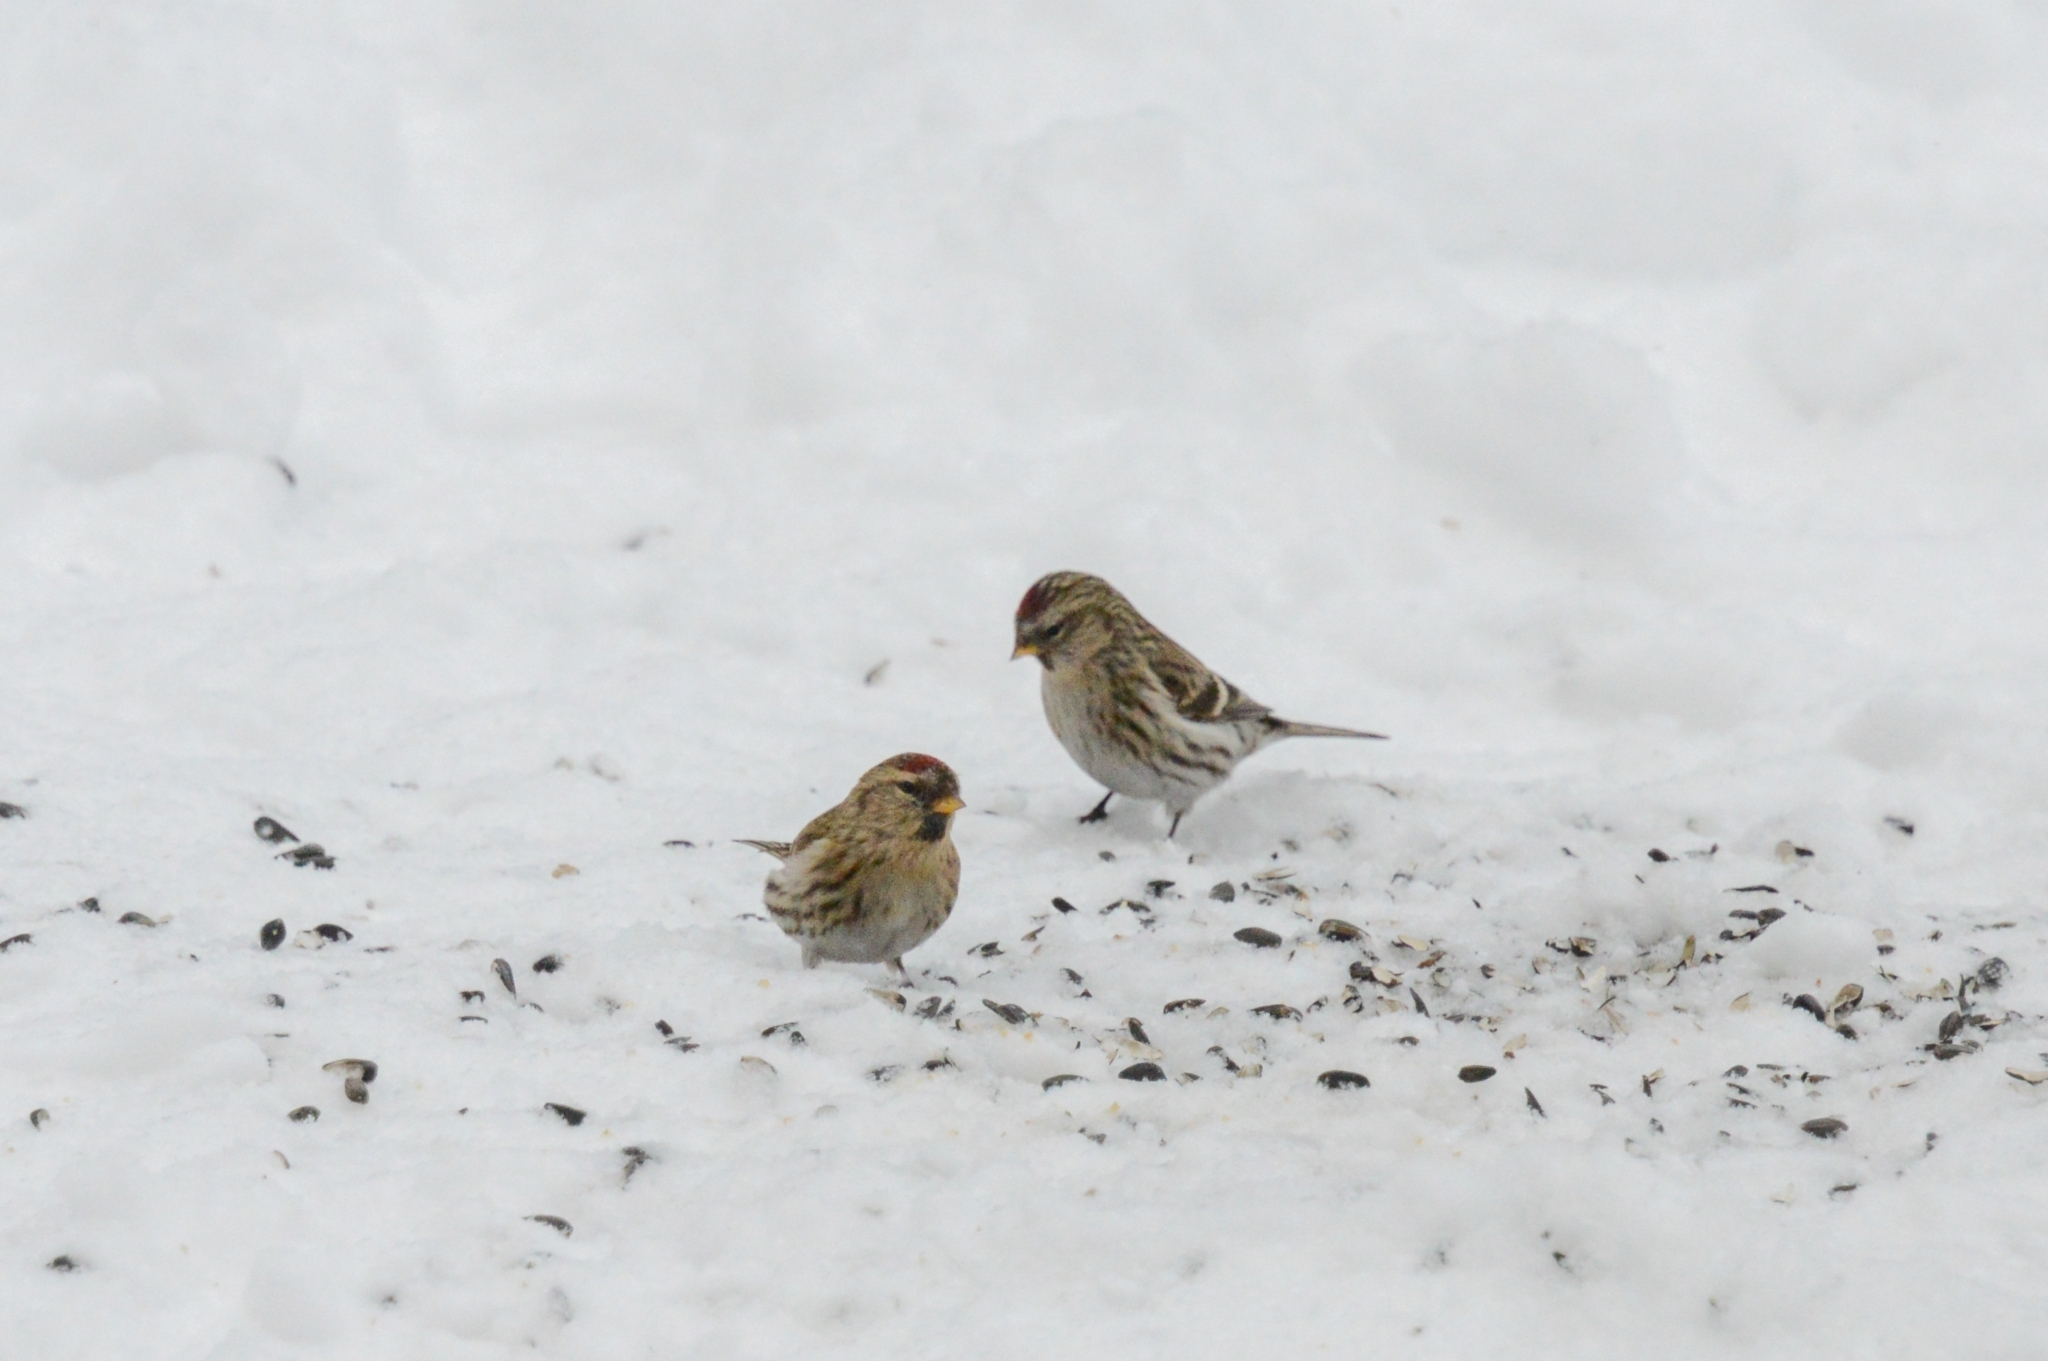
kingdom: Animalia
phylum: Chordata
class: Aves
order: Passeriformes
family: Fringillidae
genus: Acanthis
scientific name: Acanthis flammea
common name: Common redpoll
